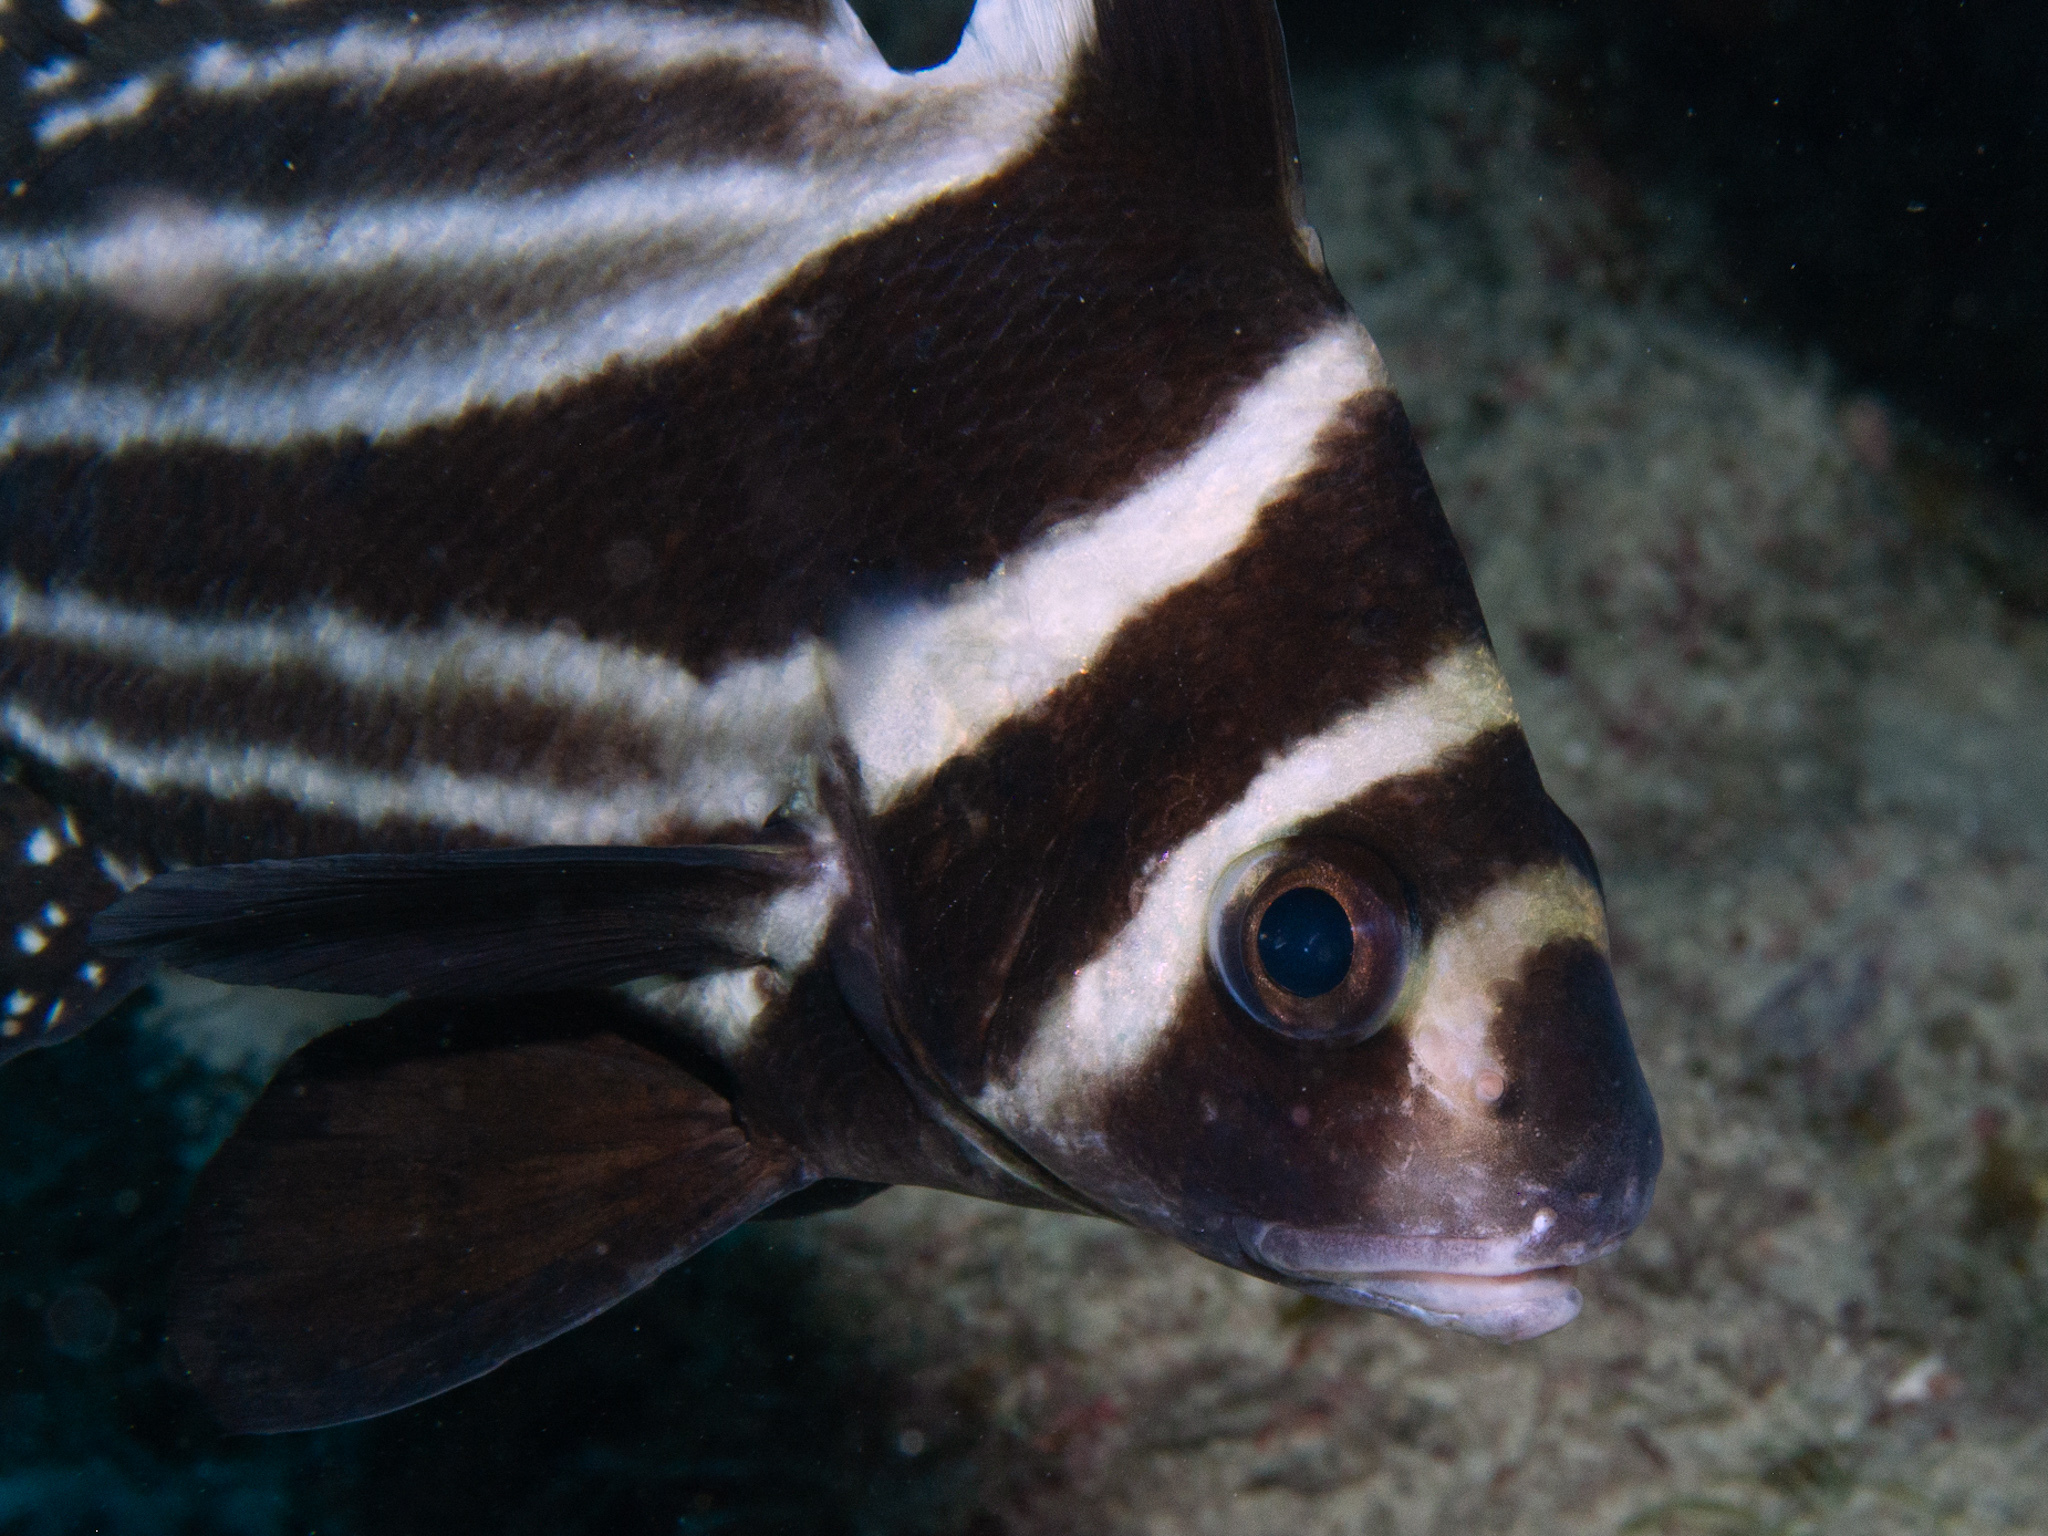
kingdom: Animalia
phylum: Chordata
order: Perciformes
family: Sciaenidae
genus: Equetus
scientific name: Equetus punctatus
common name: Spotted drum
